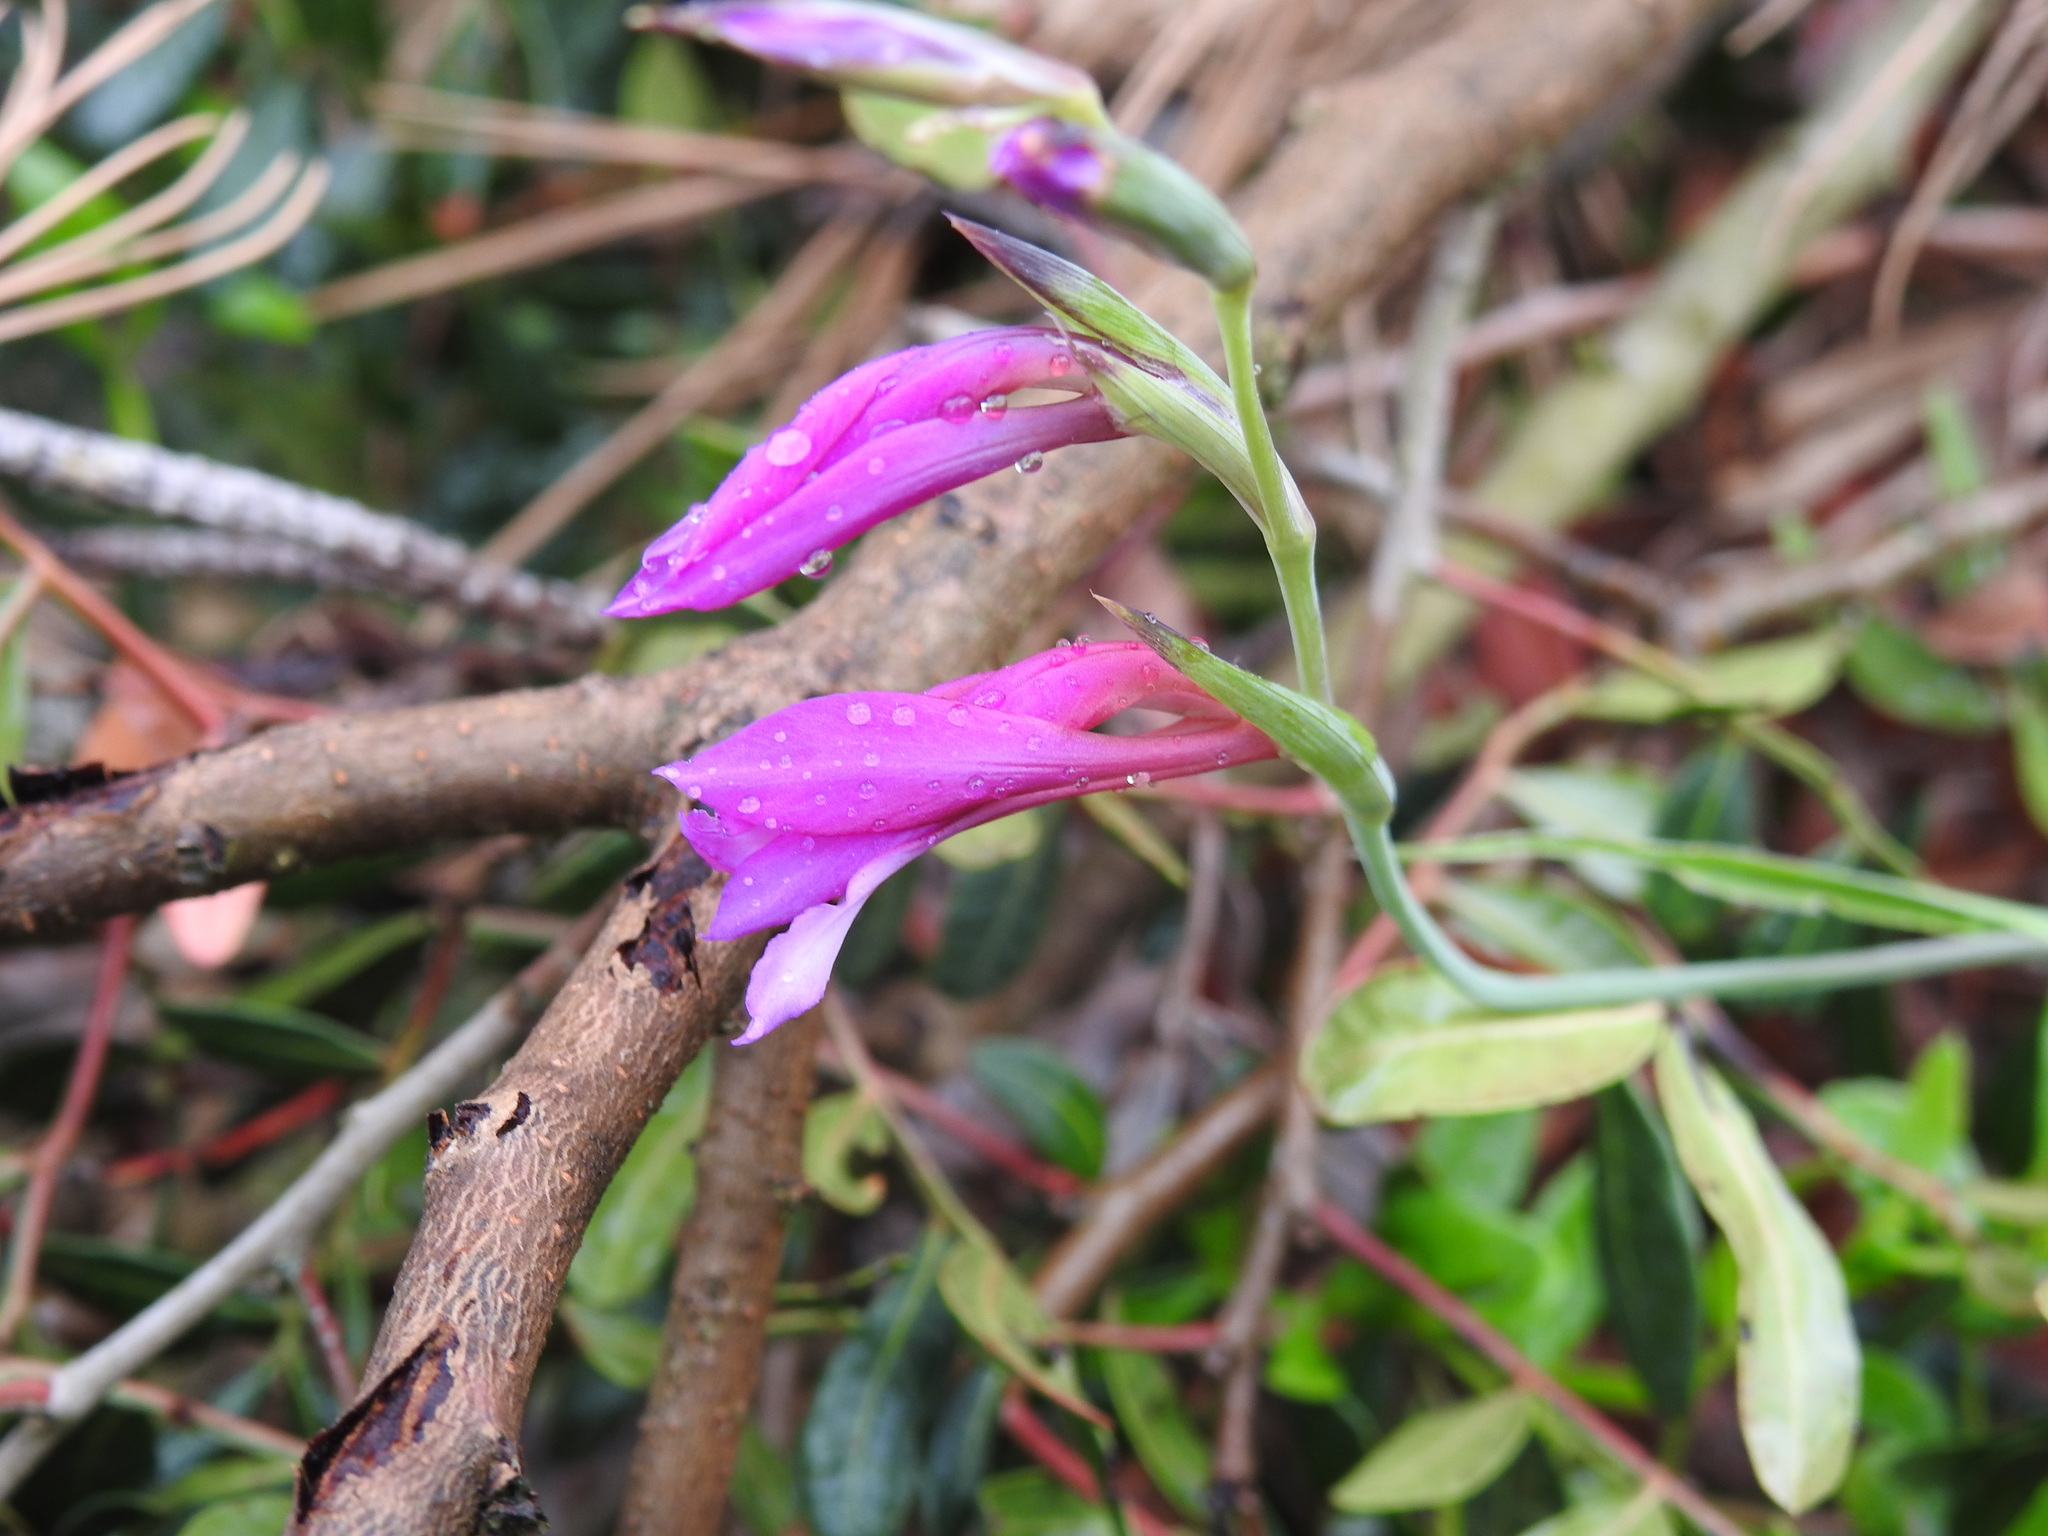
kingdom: Plantae
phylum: Tracheophyta
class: Liliopsida
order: Asparagales
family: Iridaceae
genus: Gladiolus
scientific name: Gladiolus dubius
